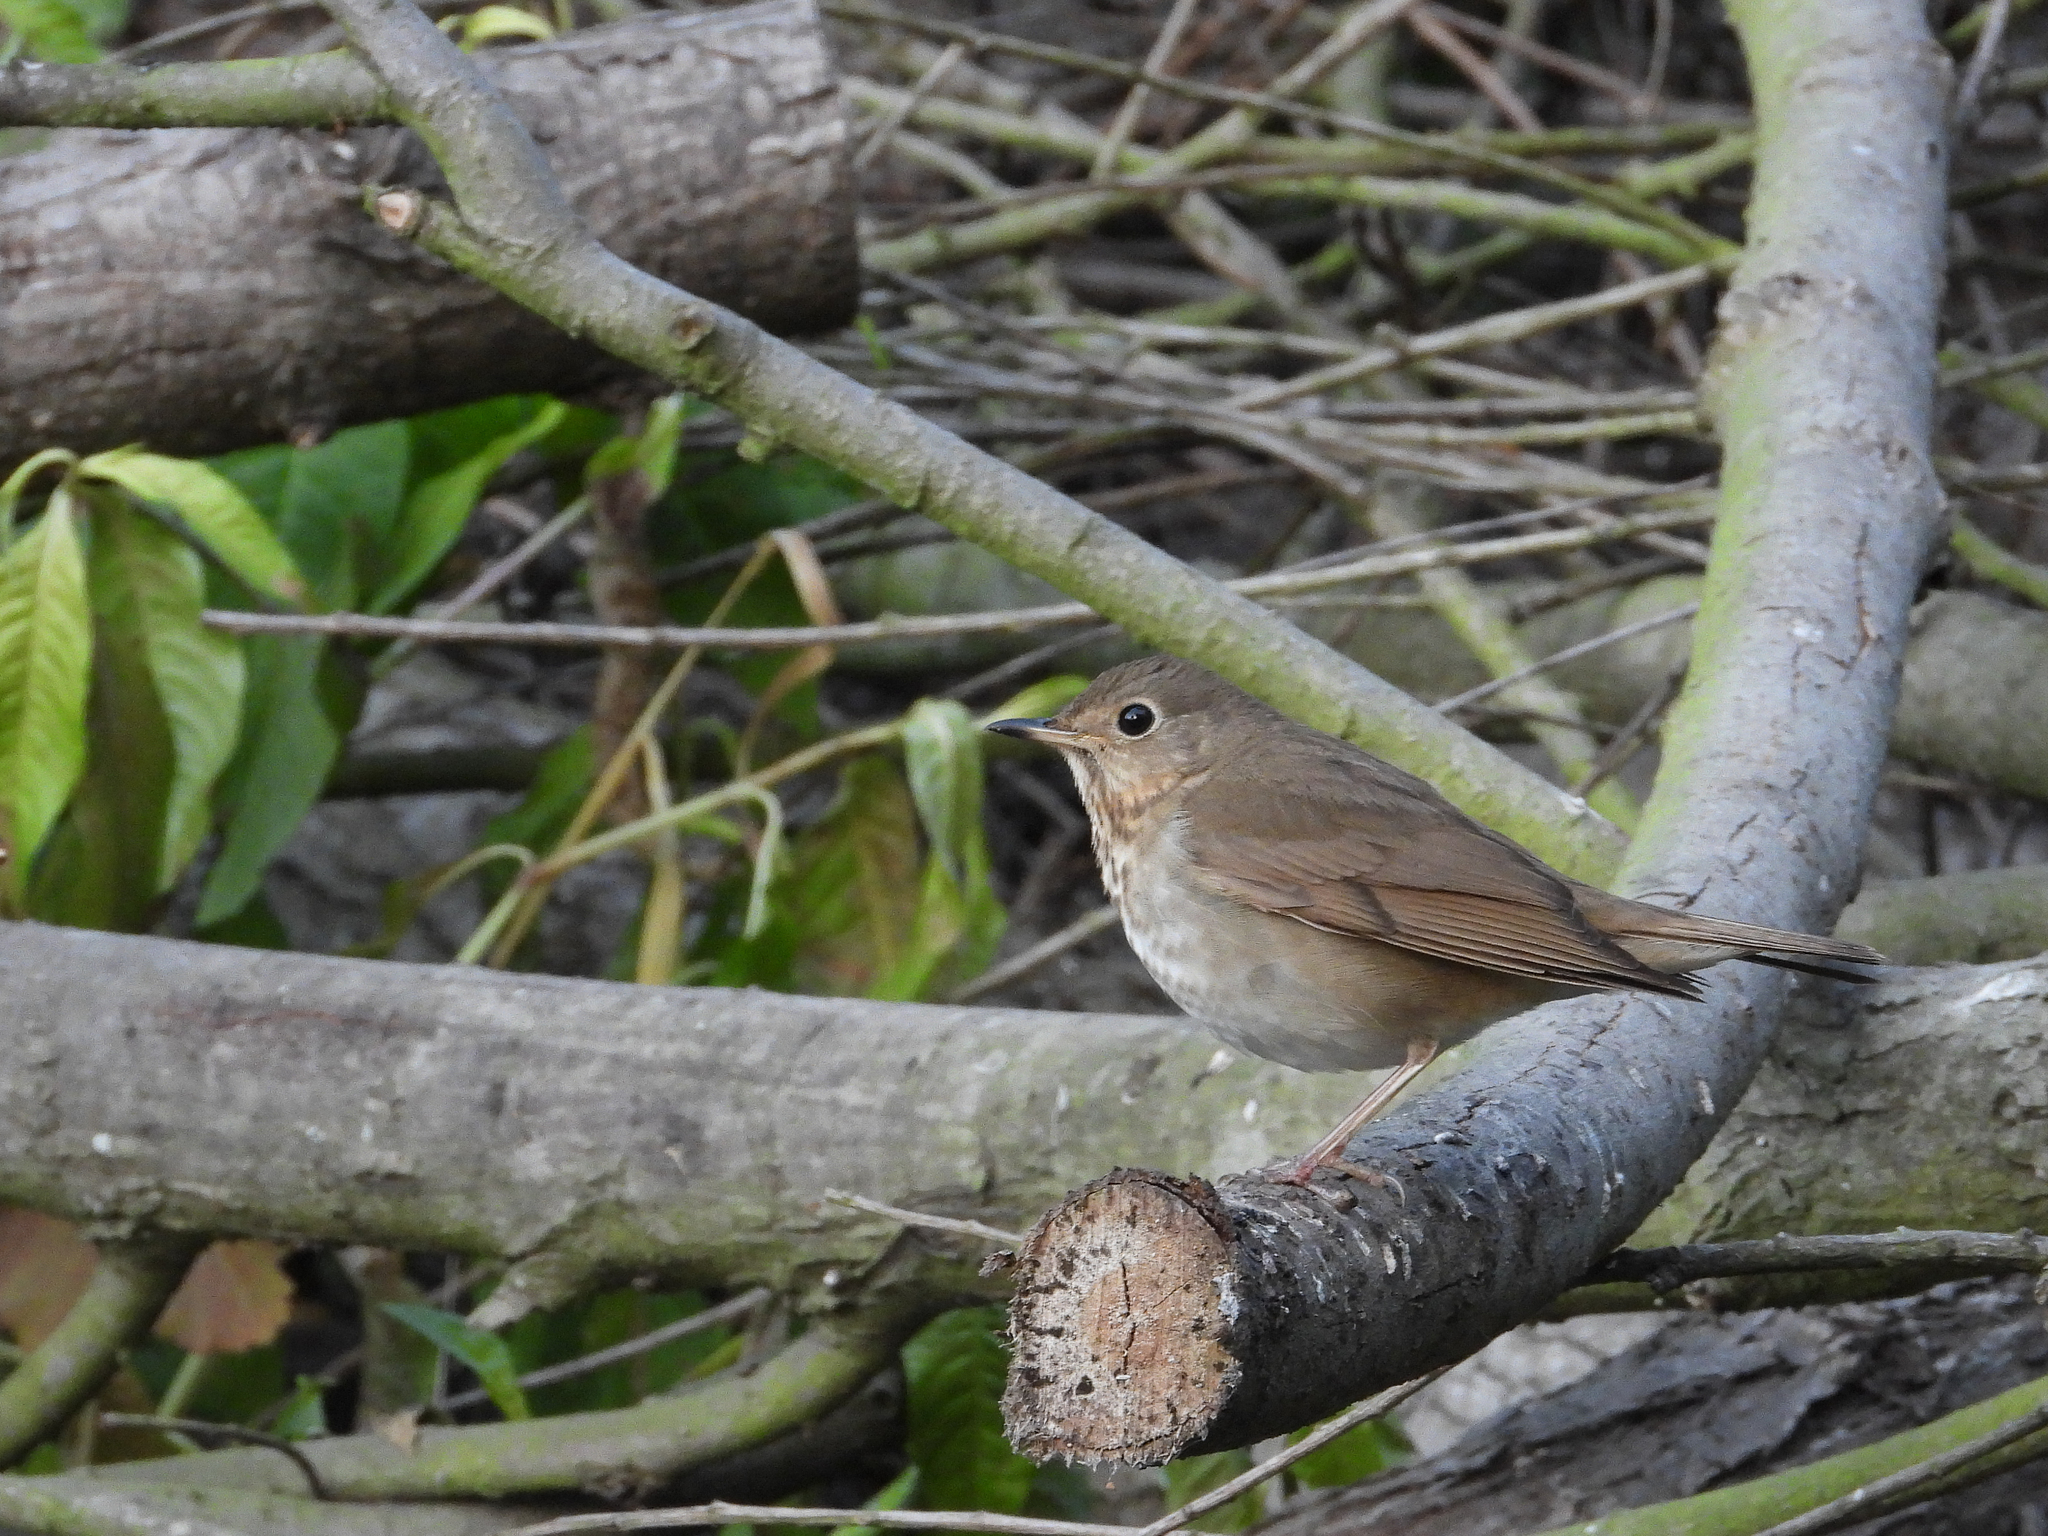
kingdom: Animalia
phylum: Chordata
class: Aves
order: Passeriformes
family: Turdidae
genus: Catharus
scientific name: Catharus ustulatus
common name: Swainson's thrush
